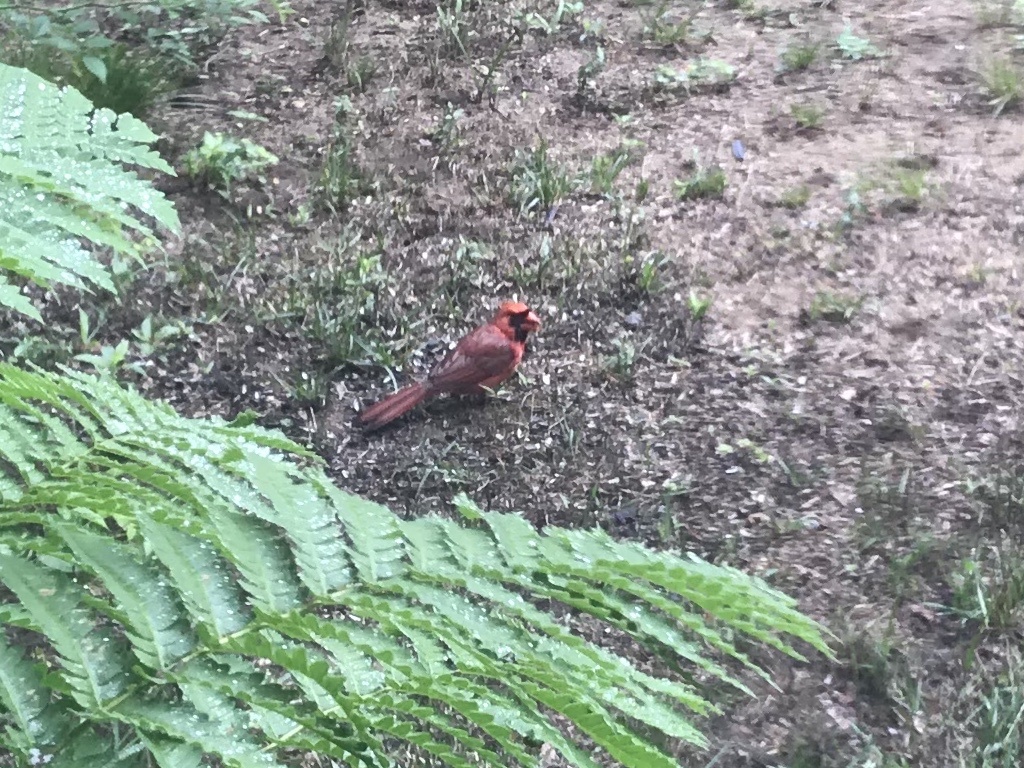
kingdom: Animalia
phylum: Chordata
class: Aves
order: Passeriformes
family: Cardinalidae
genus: Cardinalis
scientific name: Cardinalis cardinalis
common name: Northern cardinal
